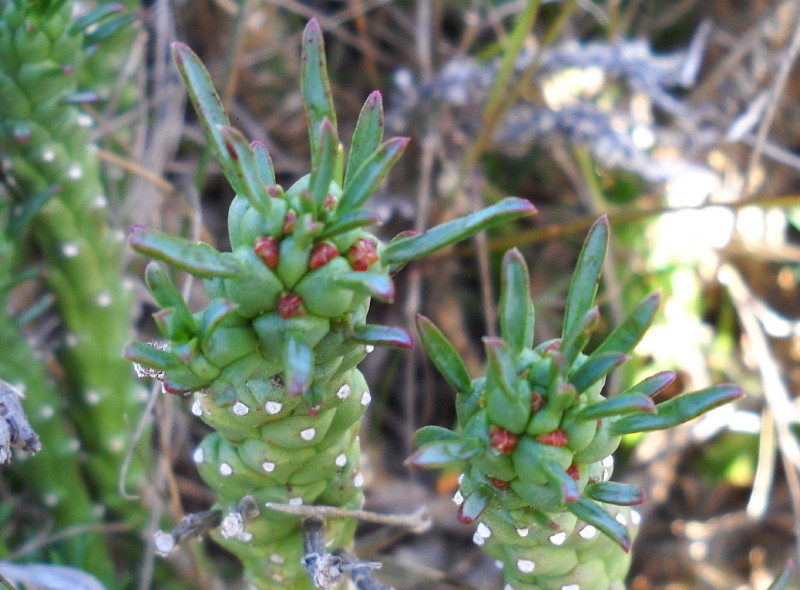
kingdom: Plantae
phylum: Tracheophyta
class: Magnoliopsida
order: Malpighiales
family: Euphorbiaceae
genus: Euphorbia
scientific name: Euphorbia caput-medusae
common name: Medusa's-head
